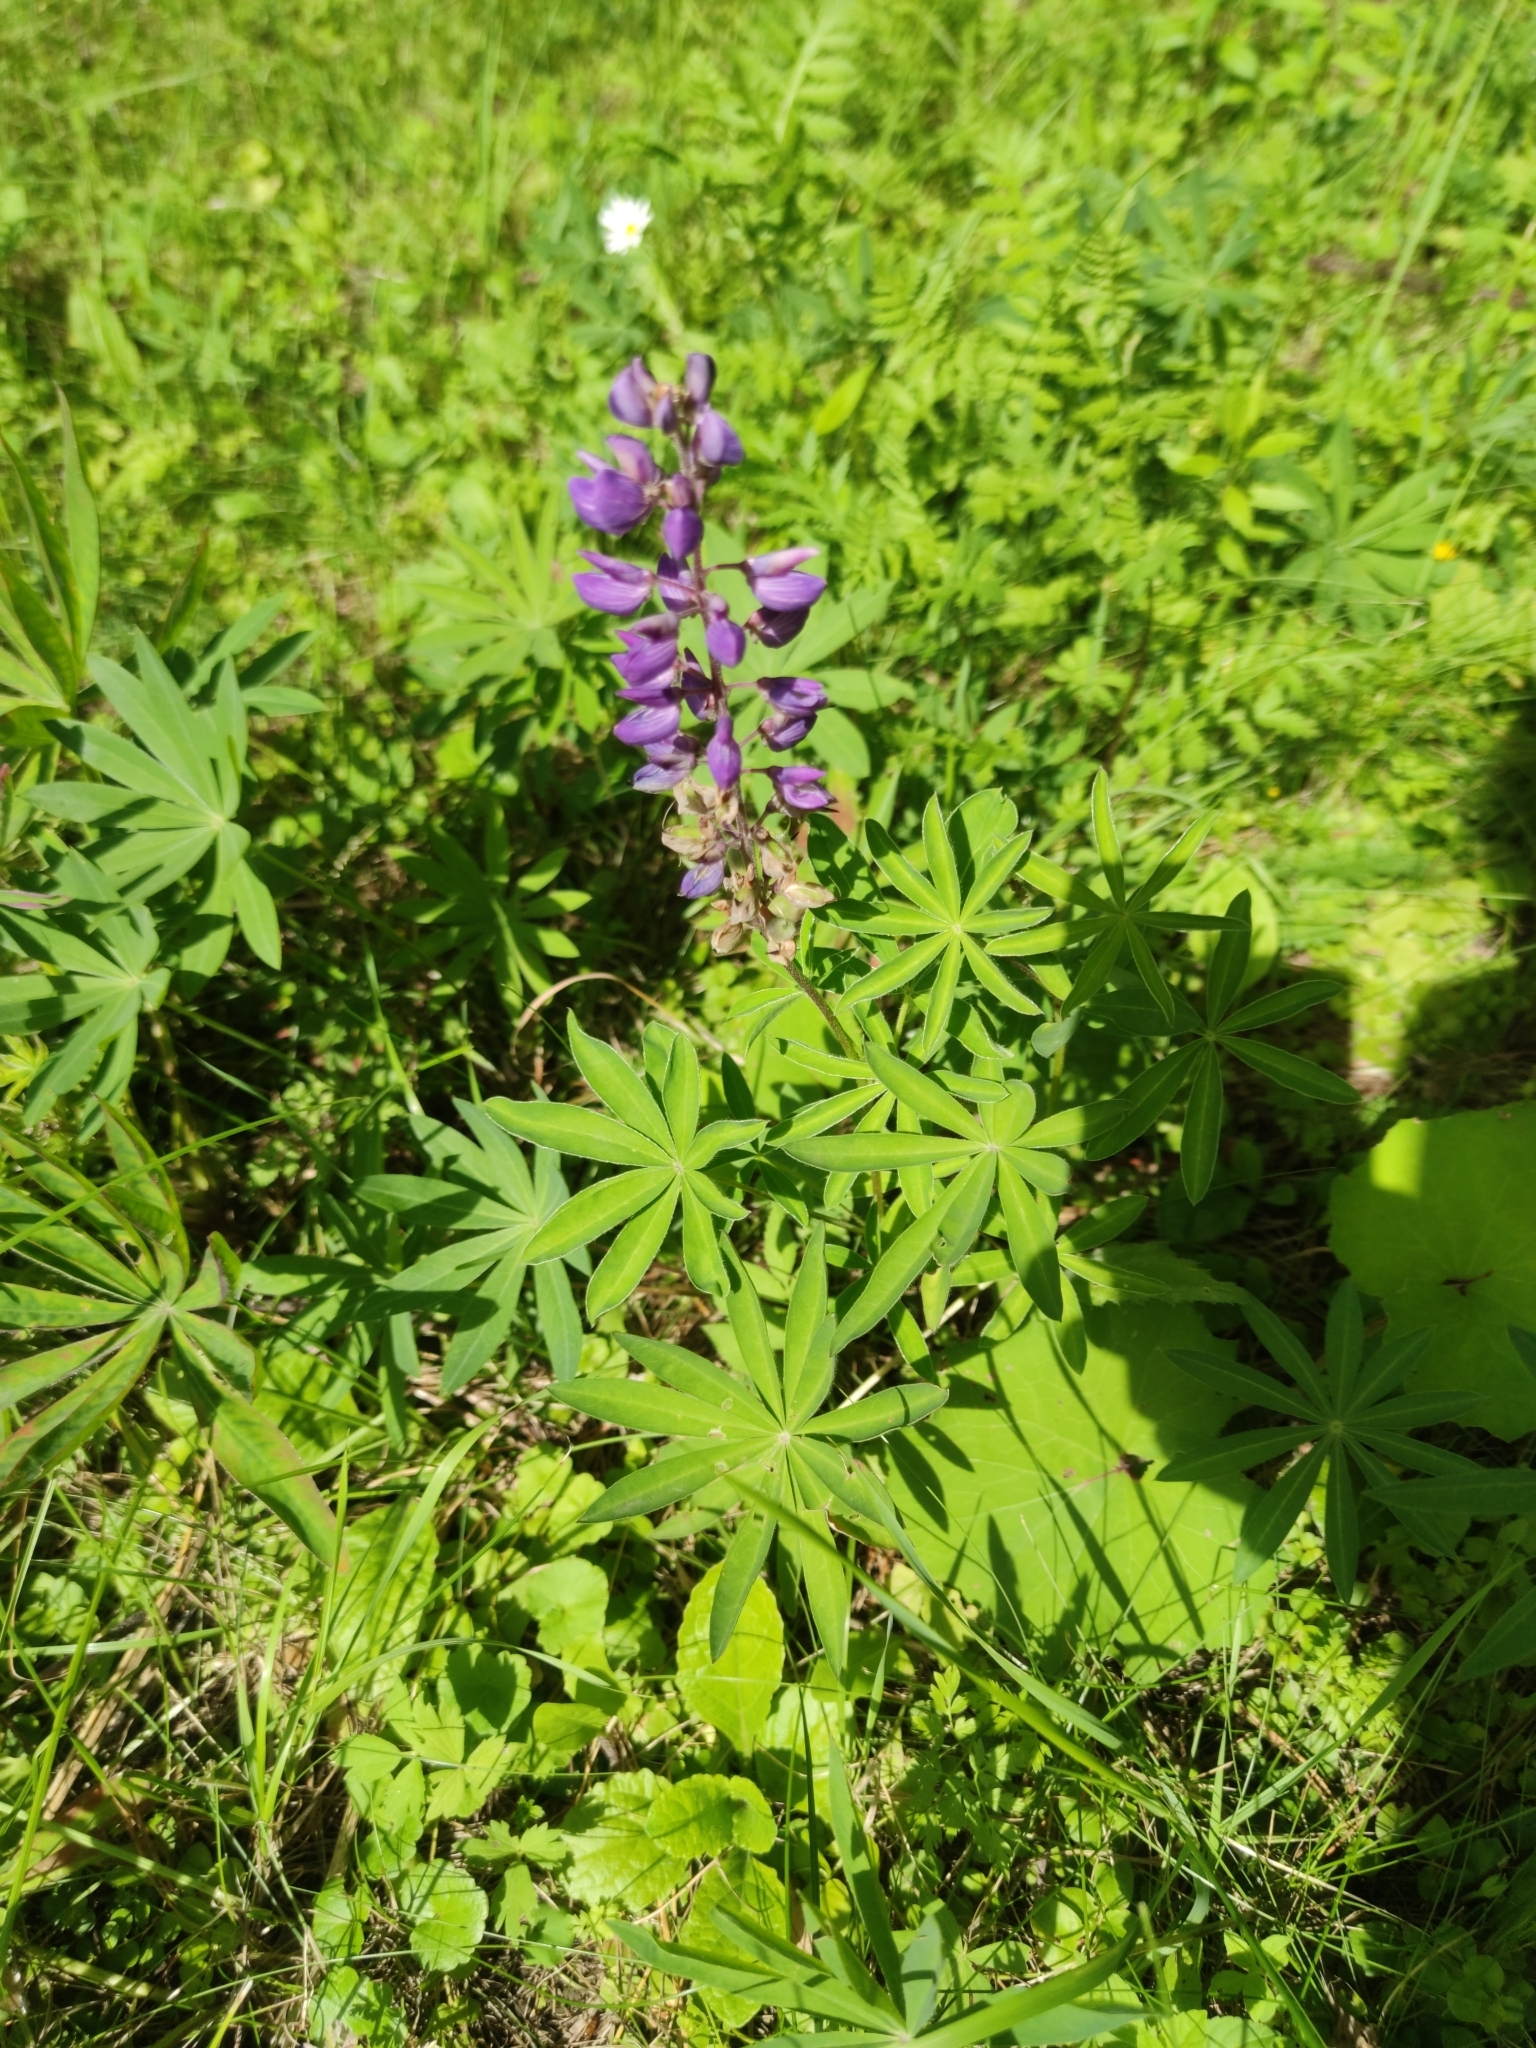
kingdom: Plantae
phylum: Tracheophyta
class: Magnoliopsida
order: Fabales
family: Fabaceae
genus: Lupinus
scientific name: Lupinus polyphyllus
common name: Garden lupin
